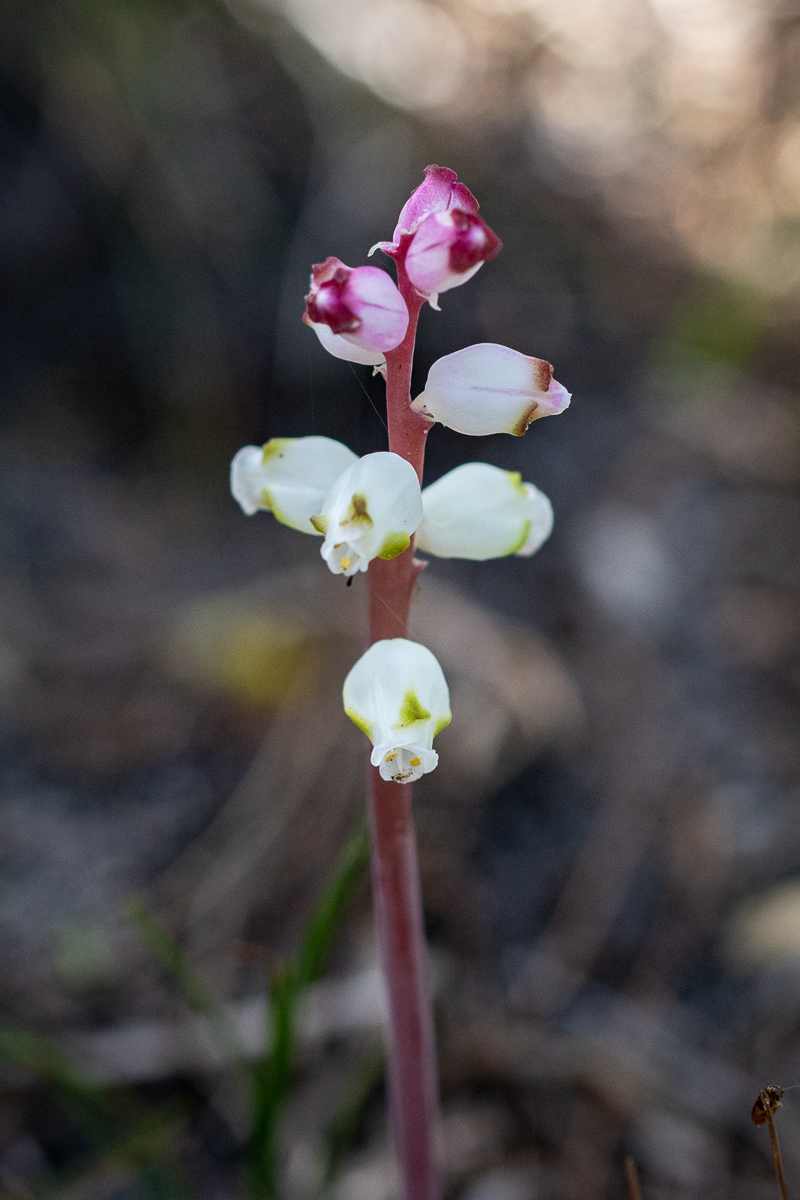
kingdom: Plantae
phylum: Tracheophyta
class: Liliopsida
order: Asparagales
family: Asparagaceae
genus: Lachenalia
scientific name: Lachenalia peersii
